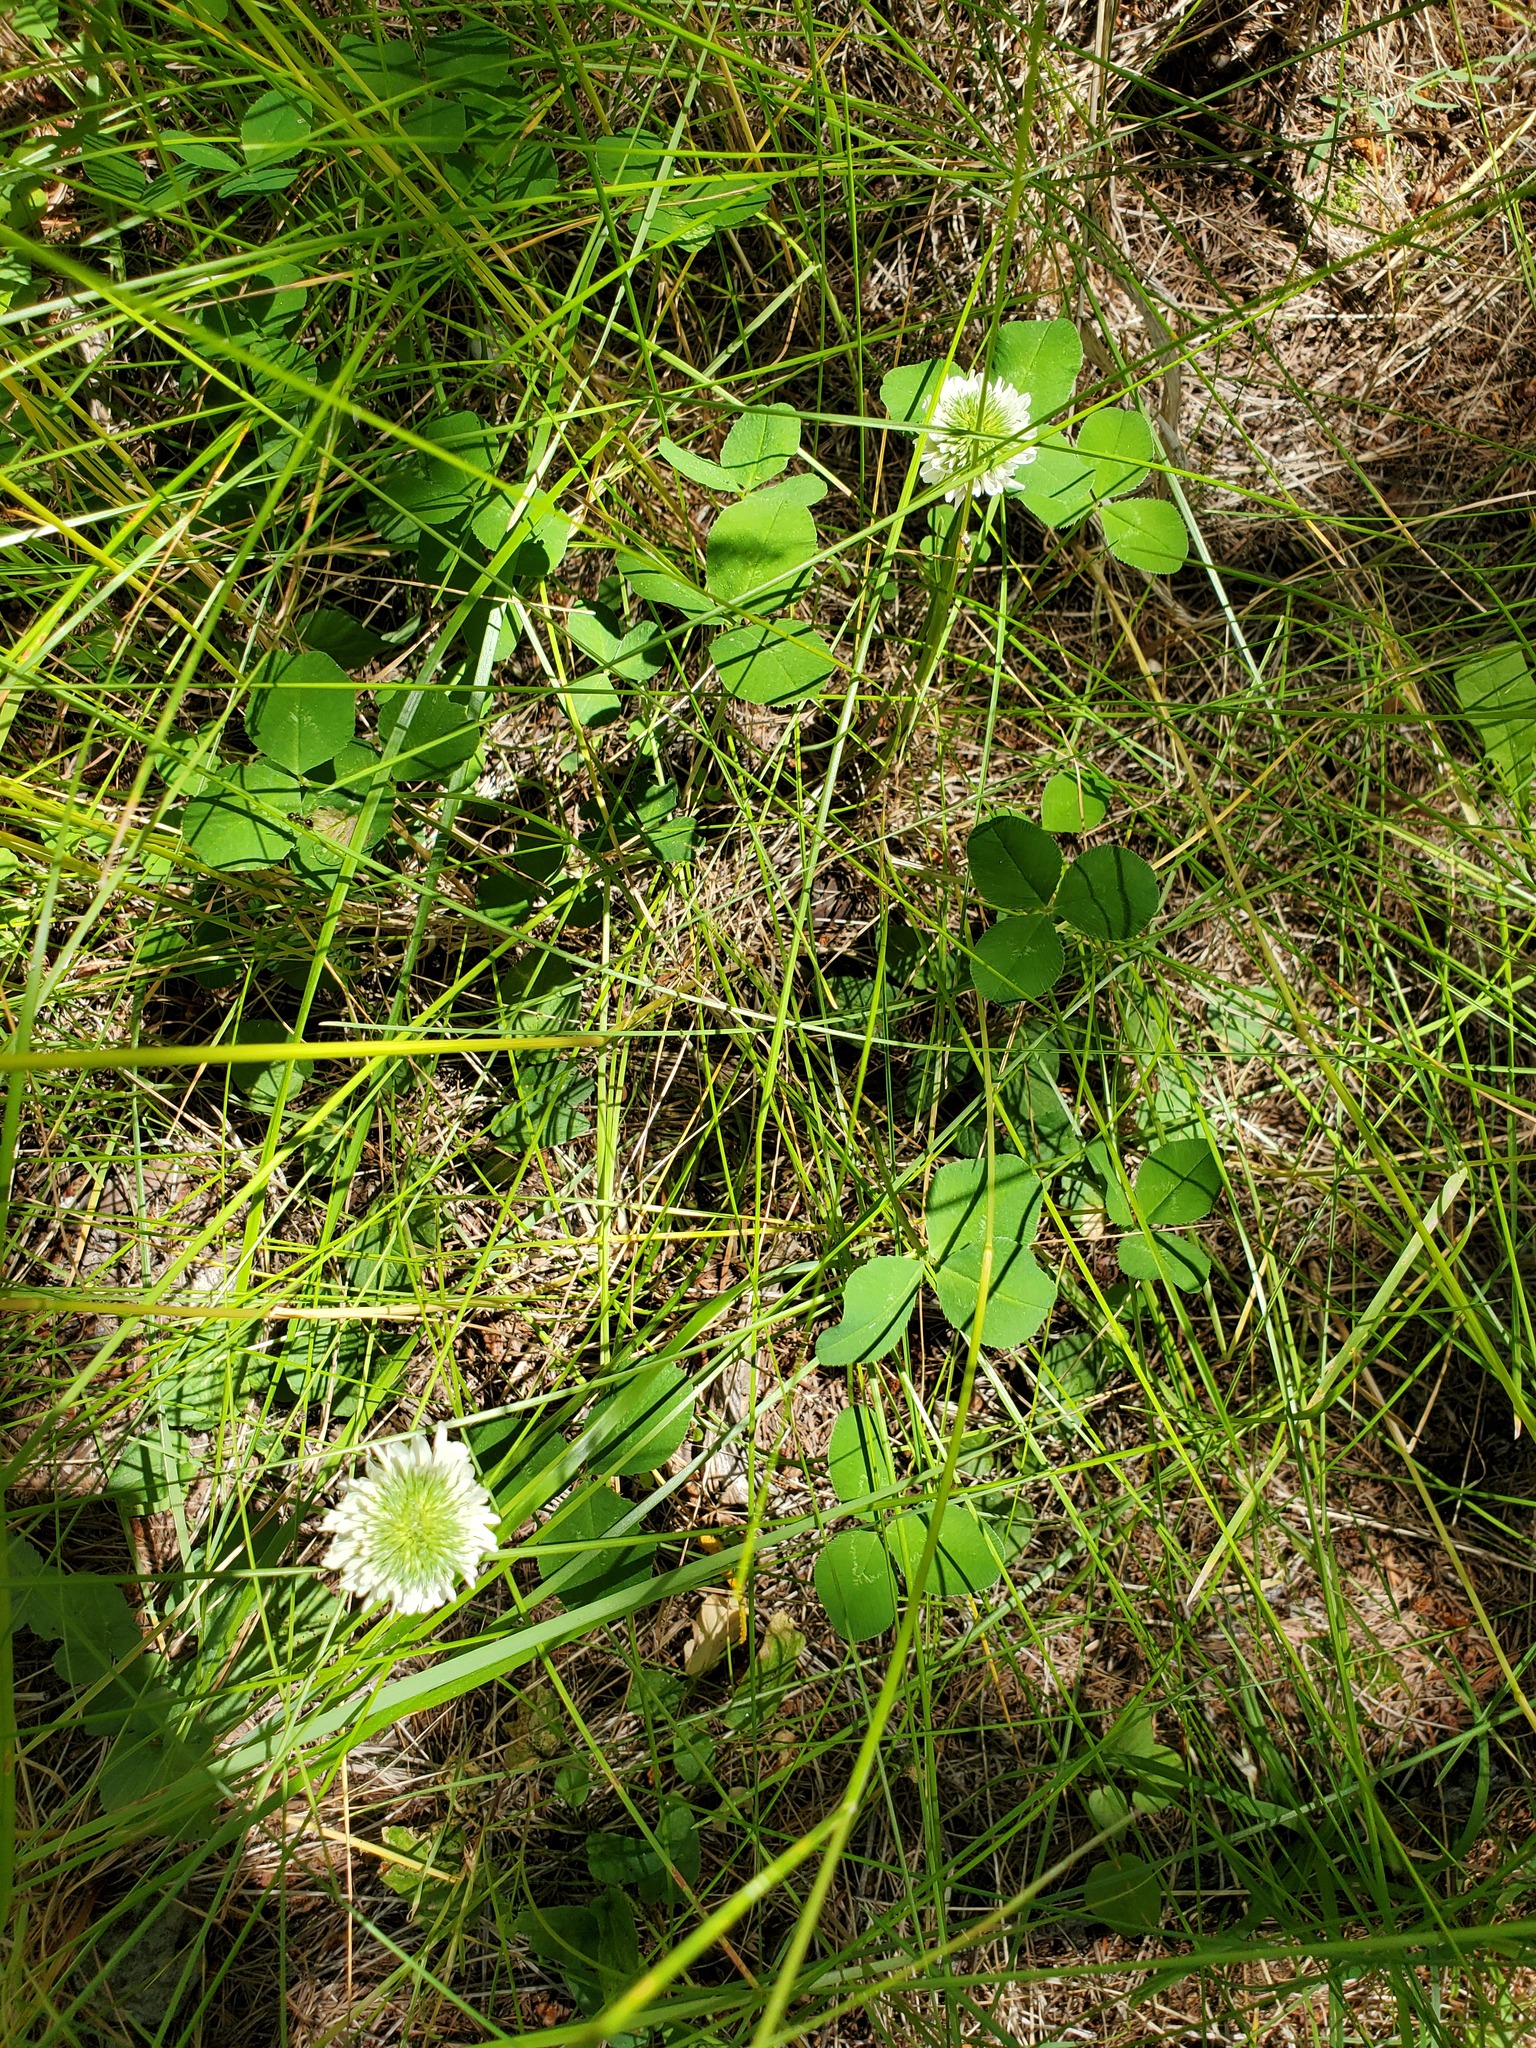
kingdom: Plantae
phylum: Tracheophyta
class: Magnoliopsida
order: Fabales
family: Fabaceae
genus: Trifolium
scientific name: Trifolium repens
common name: White clover
